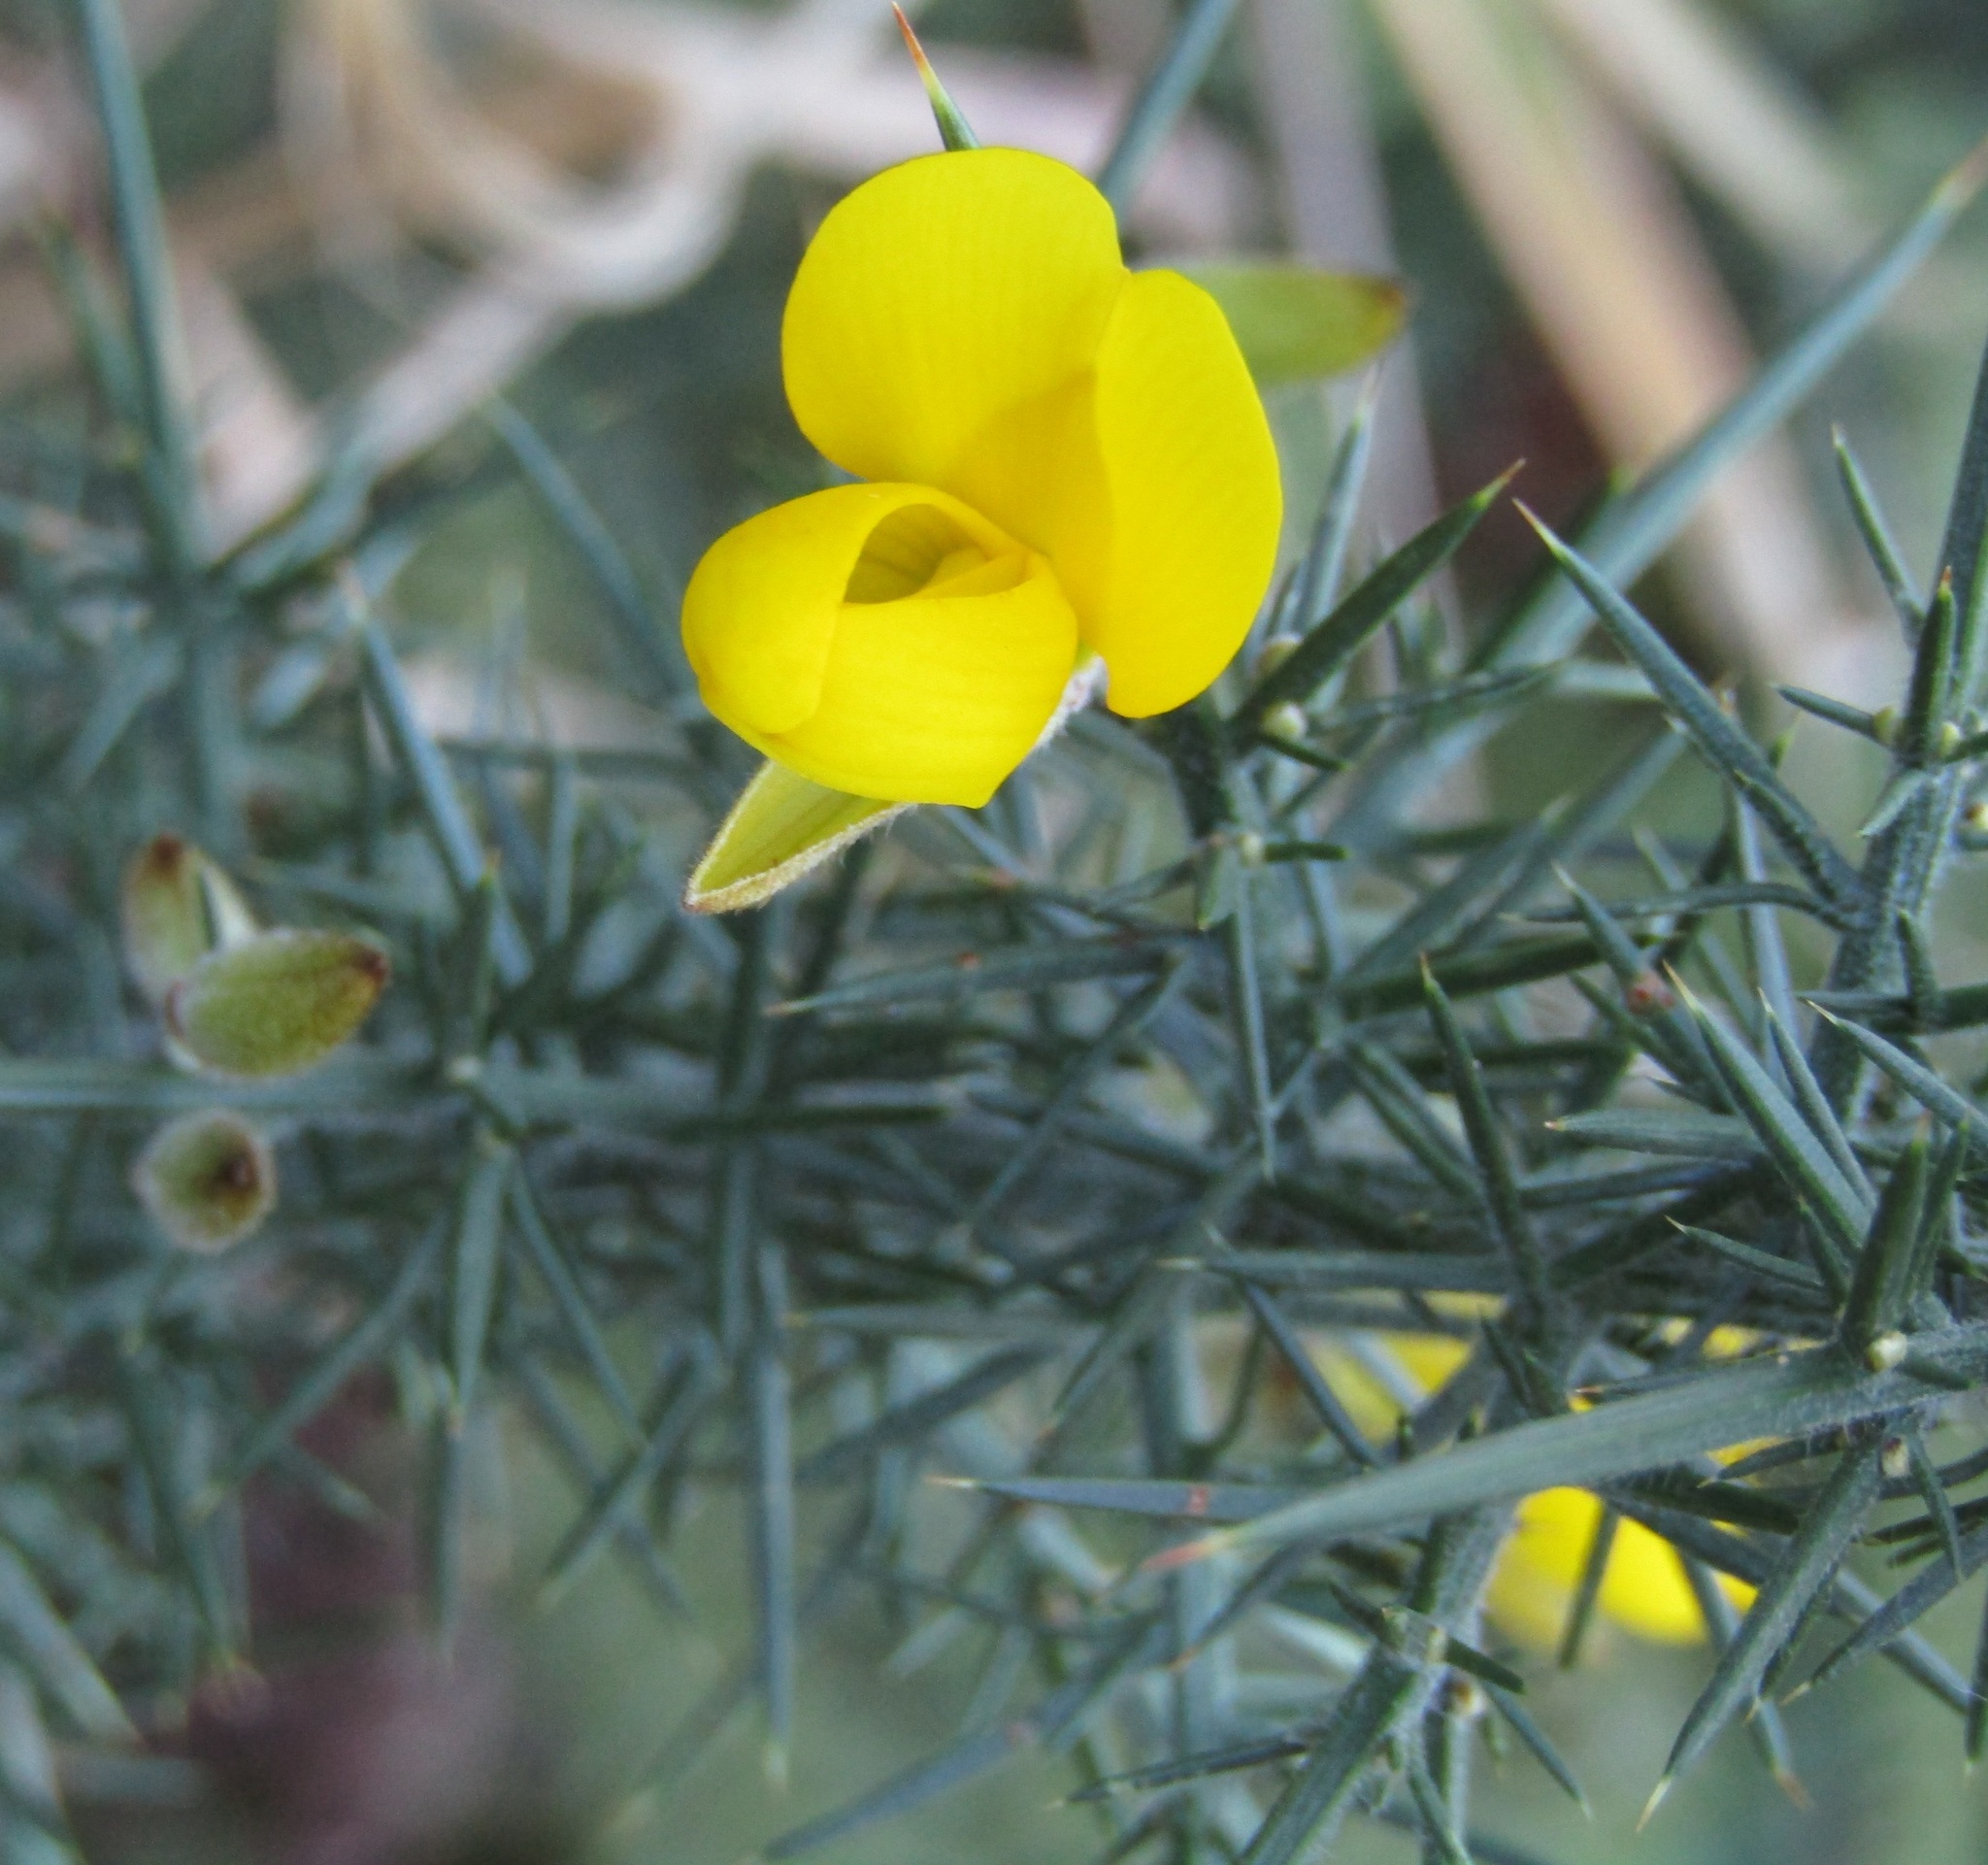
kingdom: Plantae
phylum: Tracheophyta
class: Magnoliopsida
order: Fabales
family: Fabaceae
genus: Ulex
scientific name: Ulex europaeus
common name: Common gorse
